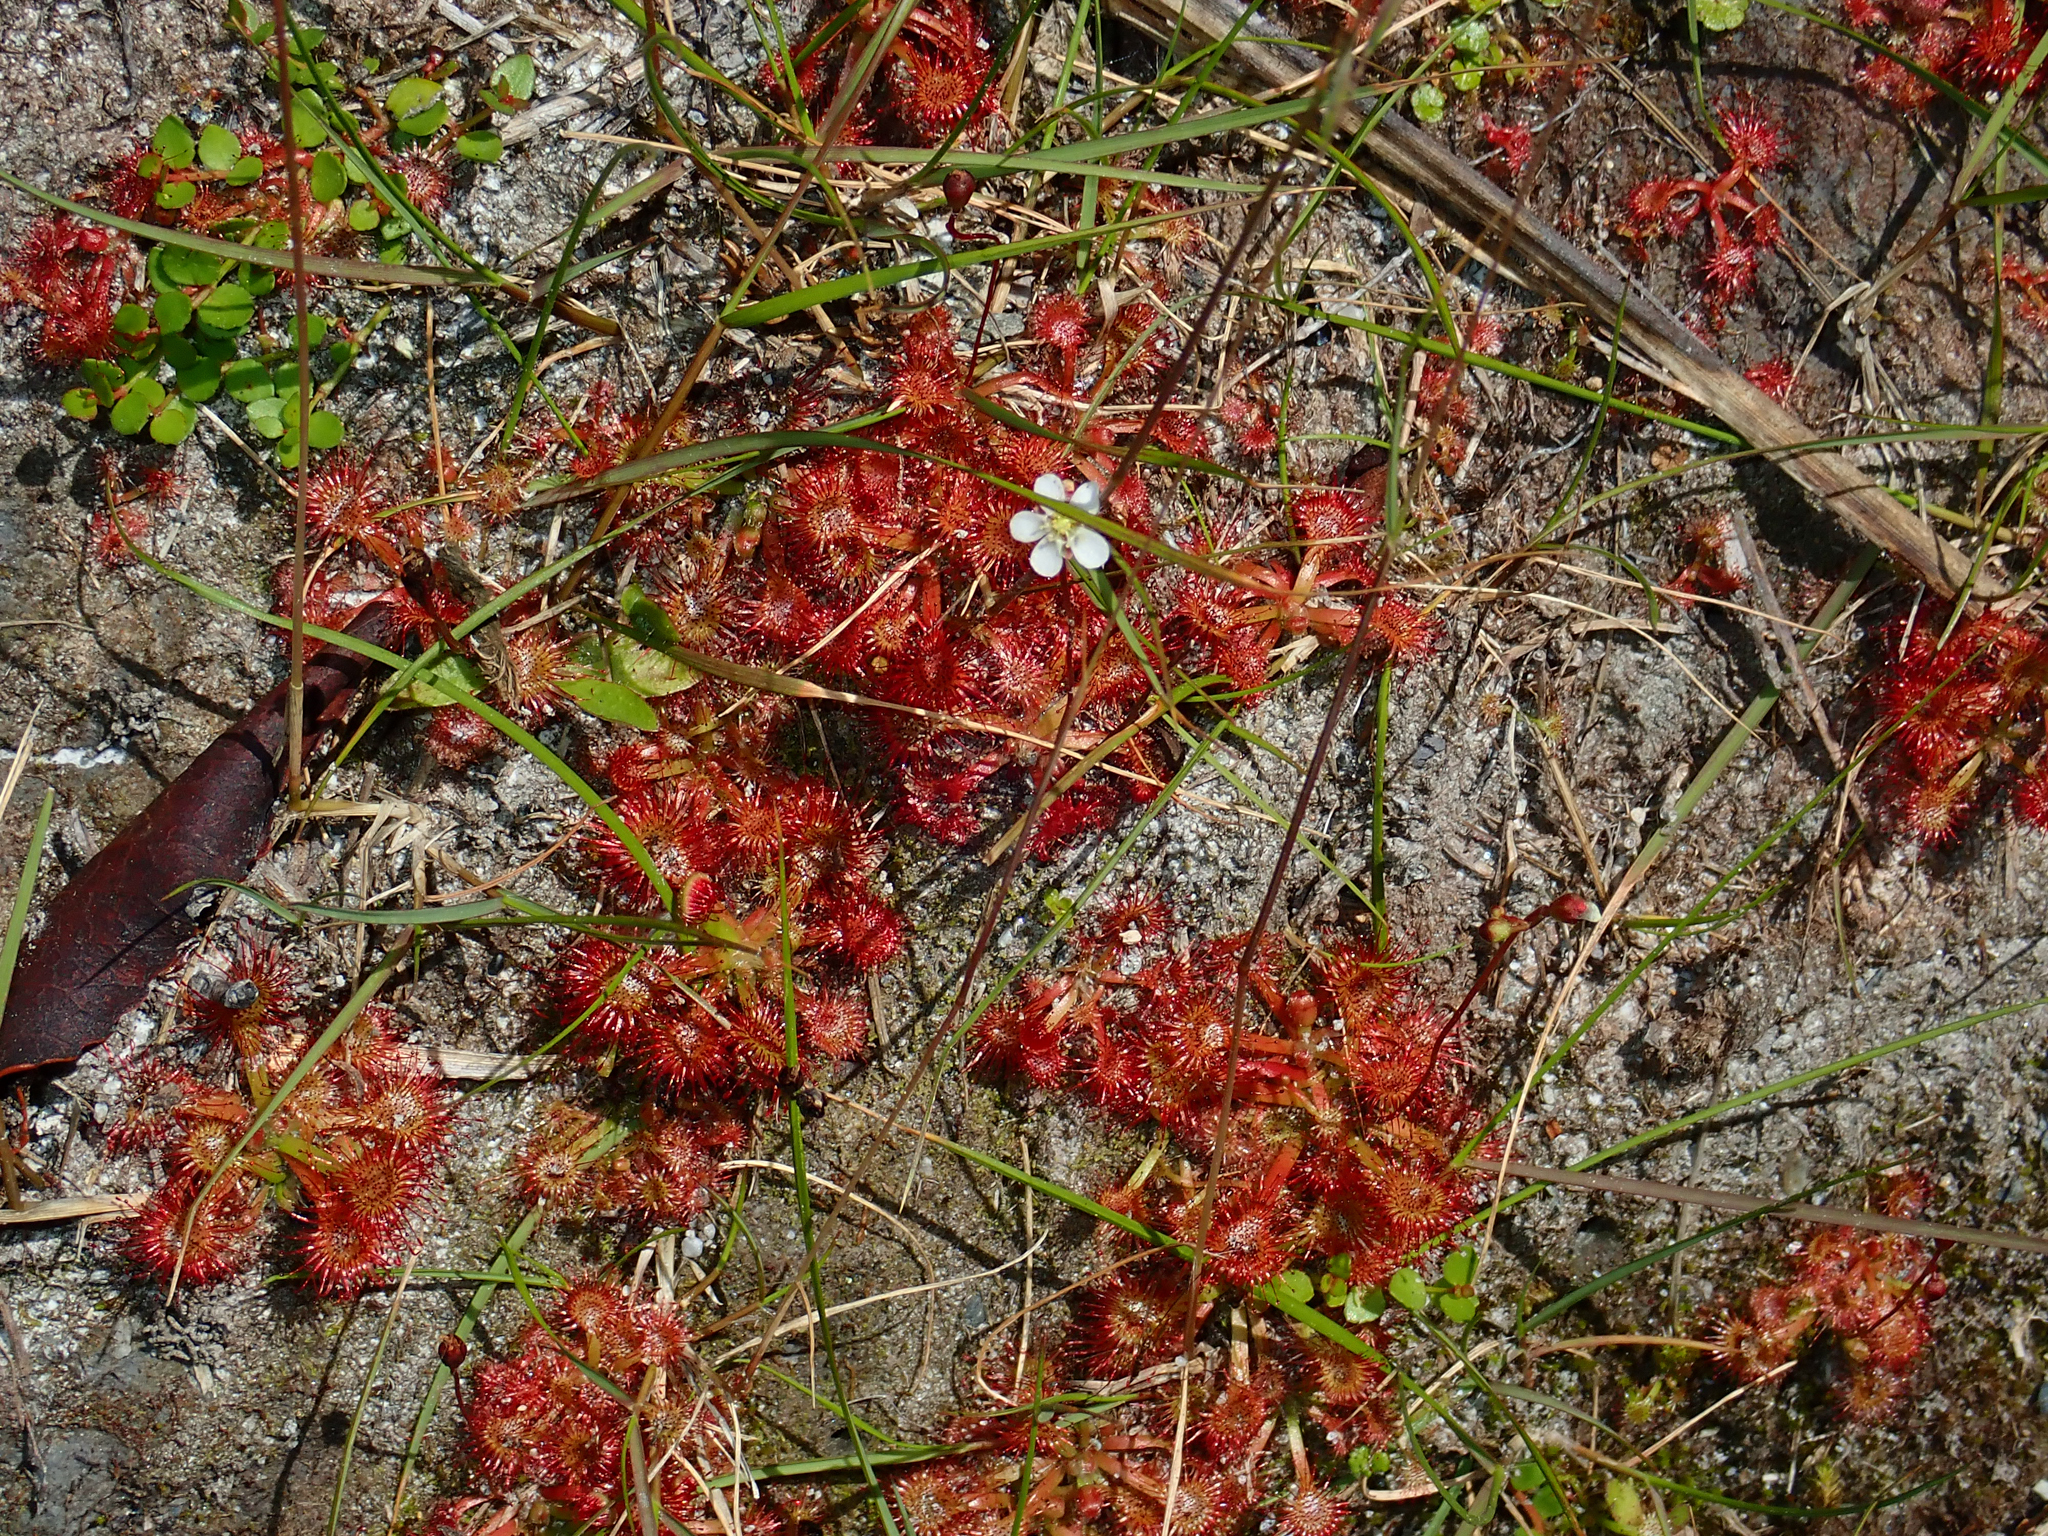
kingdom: Plantae
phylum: Tracheophyta
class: Magnoliopsida
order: Caryophyllales
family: Droseraceae
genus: Drosera
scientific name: Drosera spatulata
